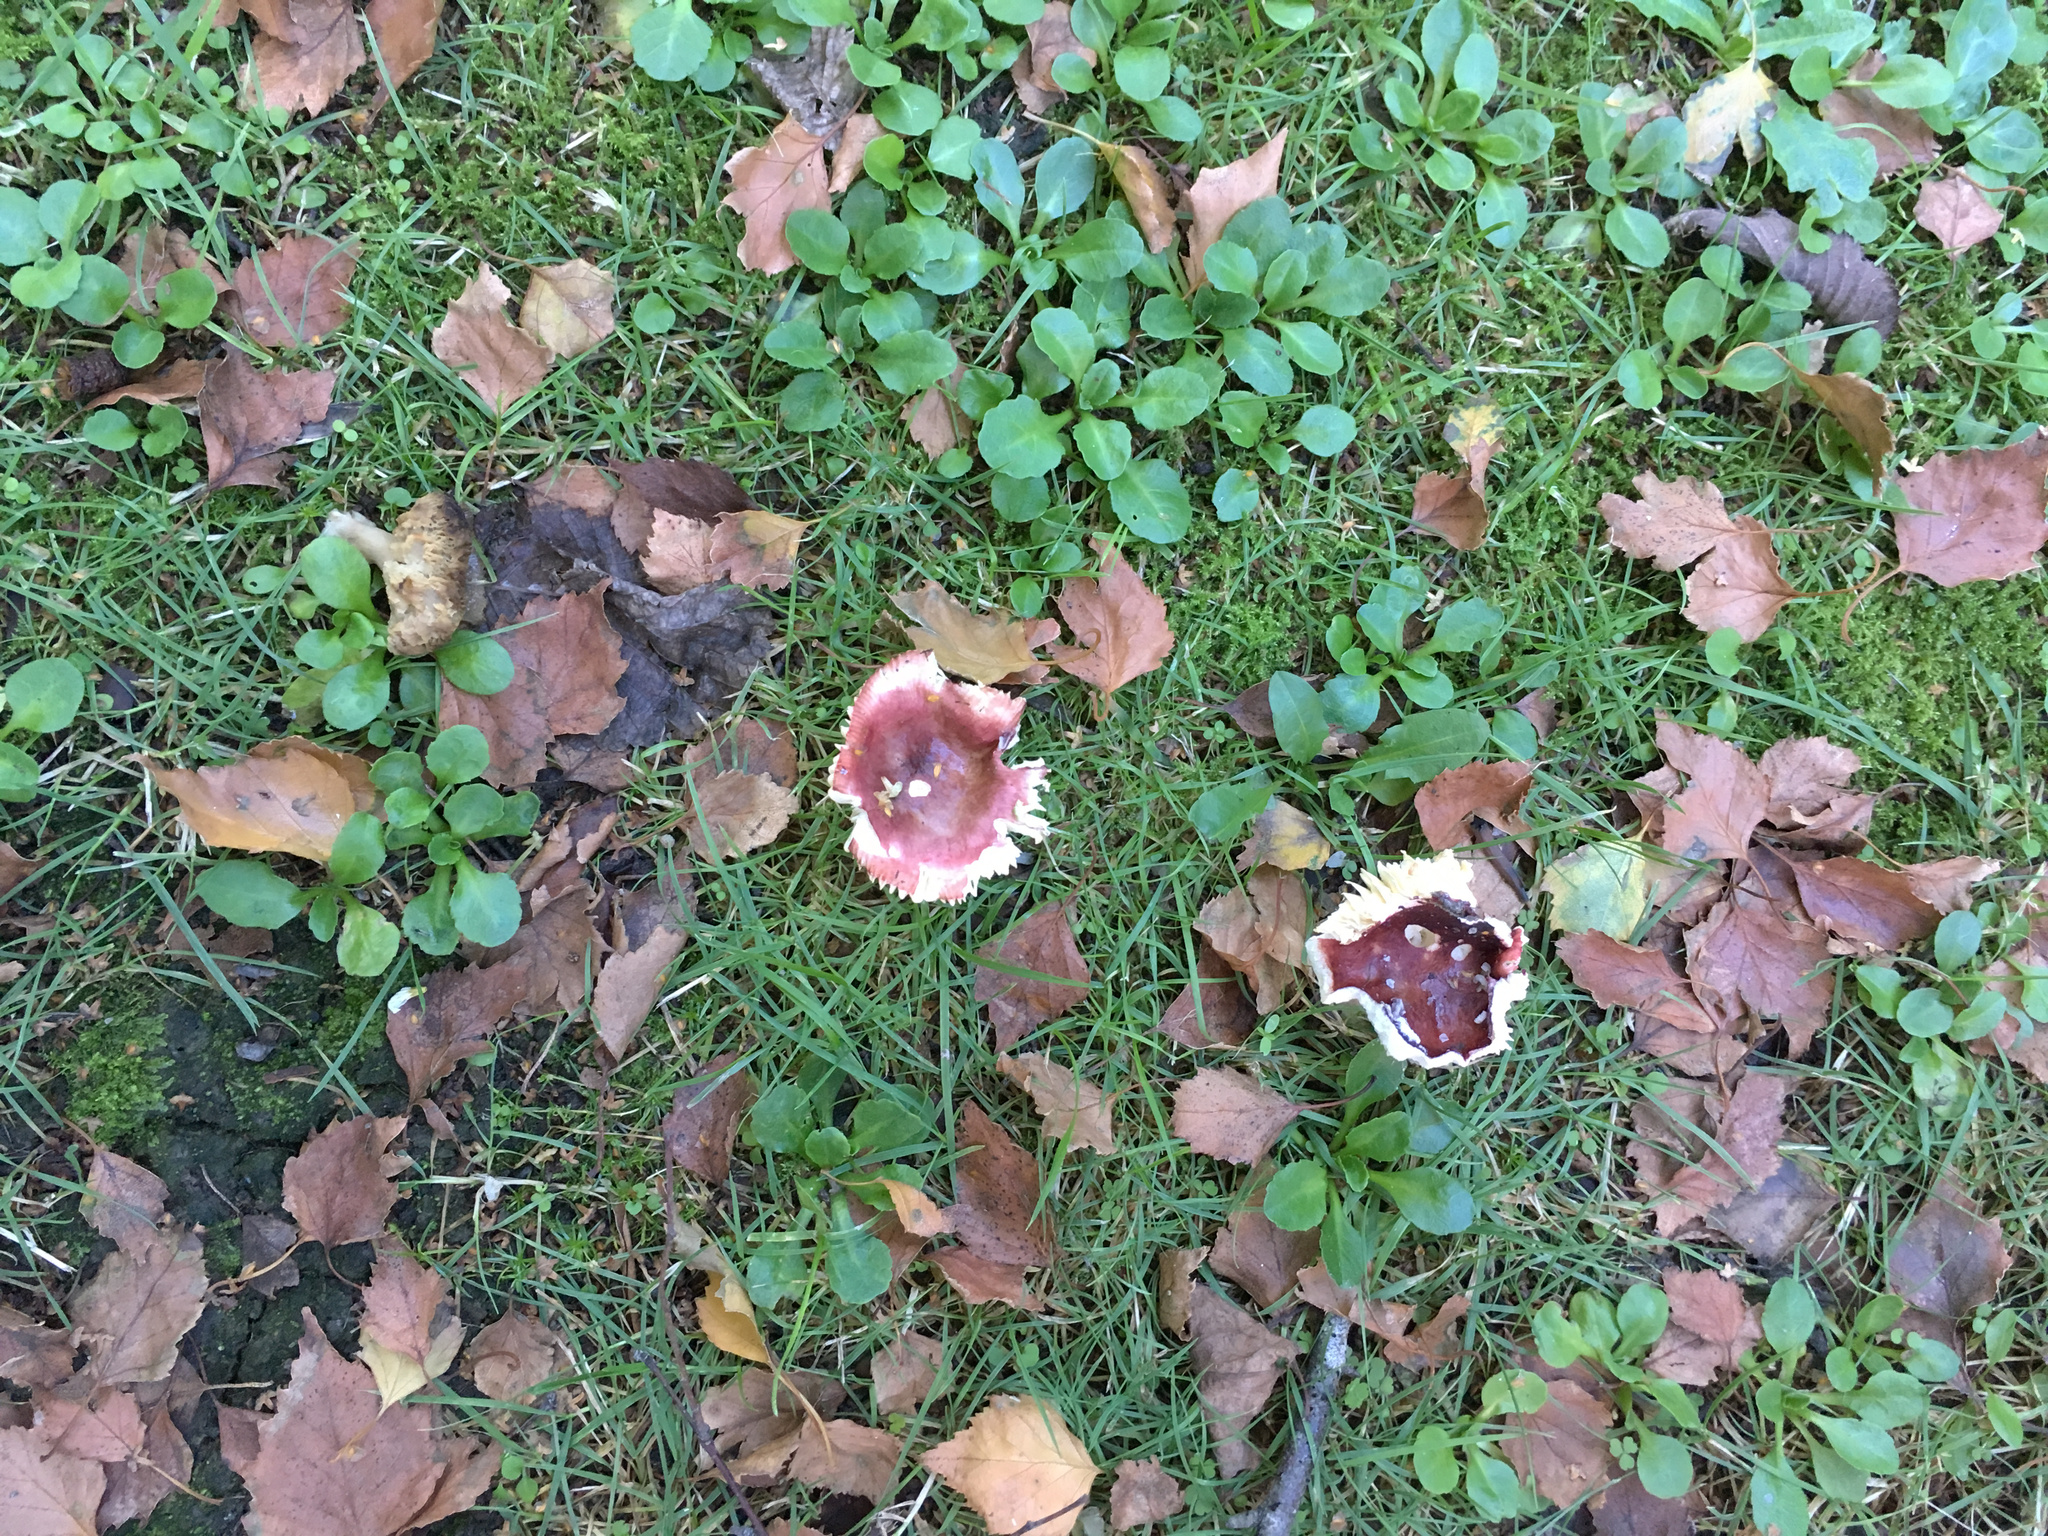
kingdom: Fungi
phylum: Basidiomycota
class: Agaricomycetes
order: Russulales
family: Russulaceae
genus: Russula
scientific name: Russula nitida
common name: Purple swamp brittlegill
